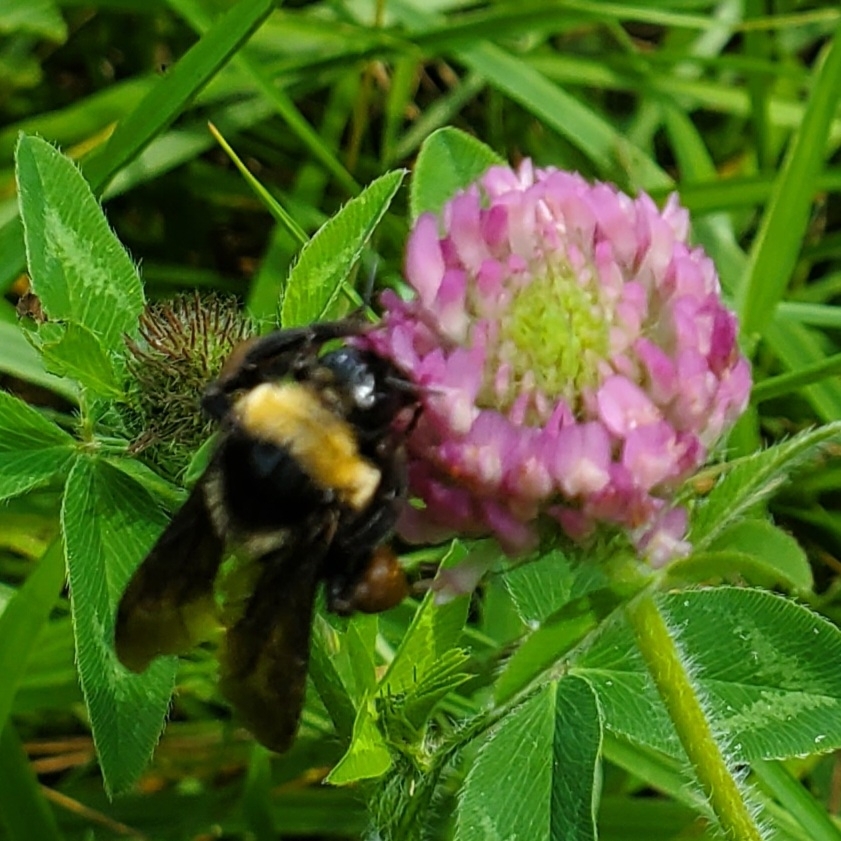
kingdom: Animalia
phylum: Arthropoda
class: Insecta
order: Hymenoptera
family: Apidae
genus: Bombus
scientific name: Bombus auricomus
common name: Black and gold bumble bee
